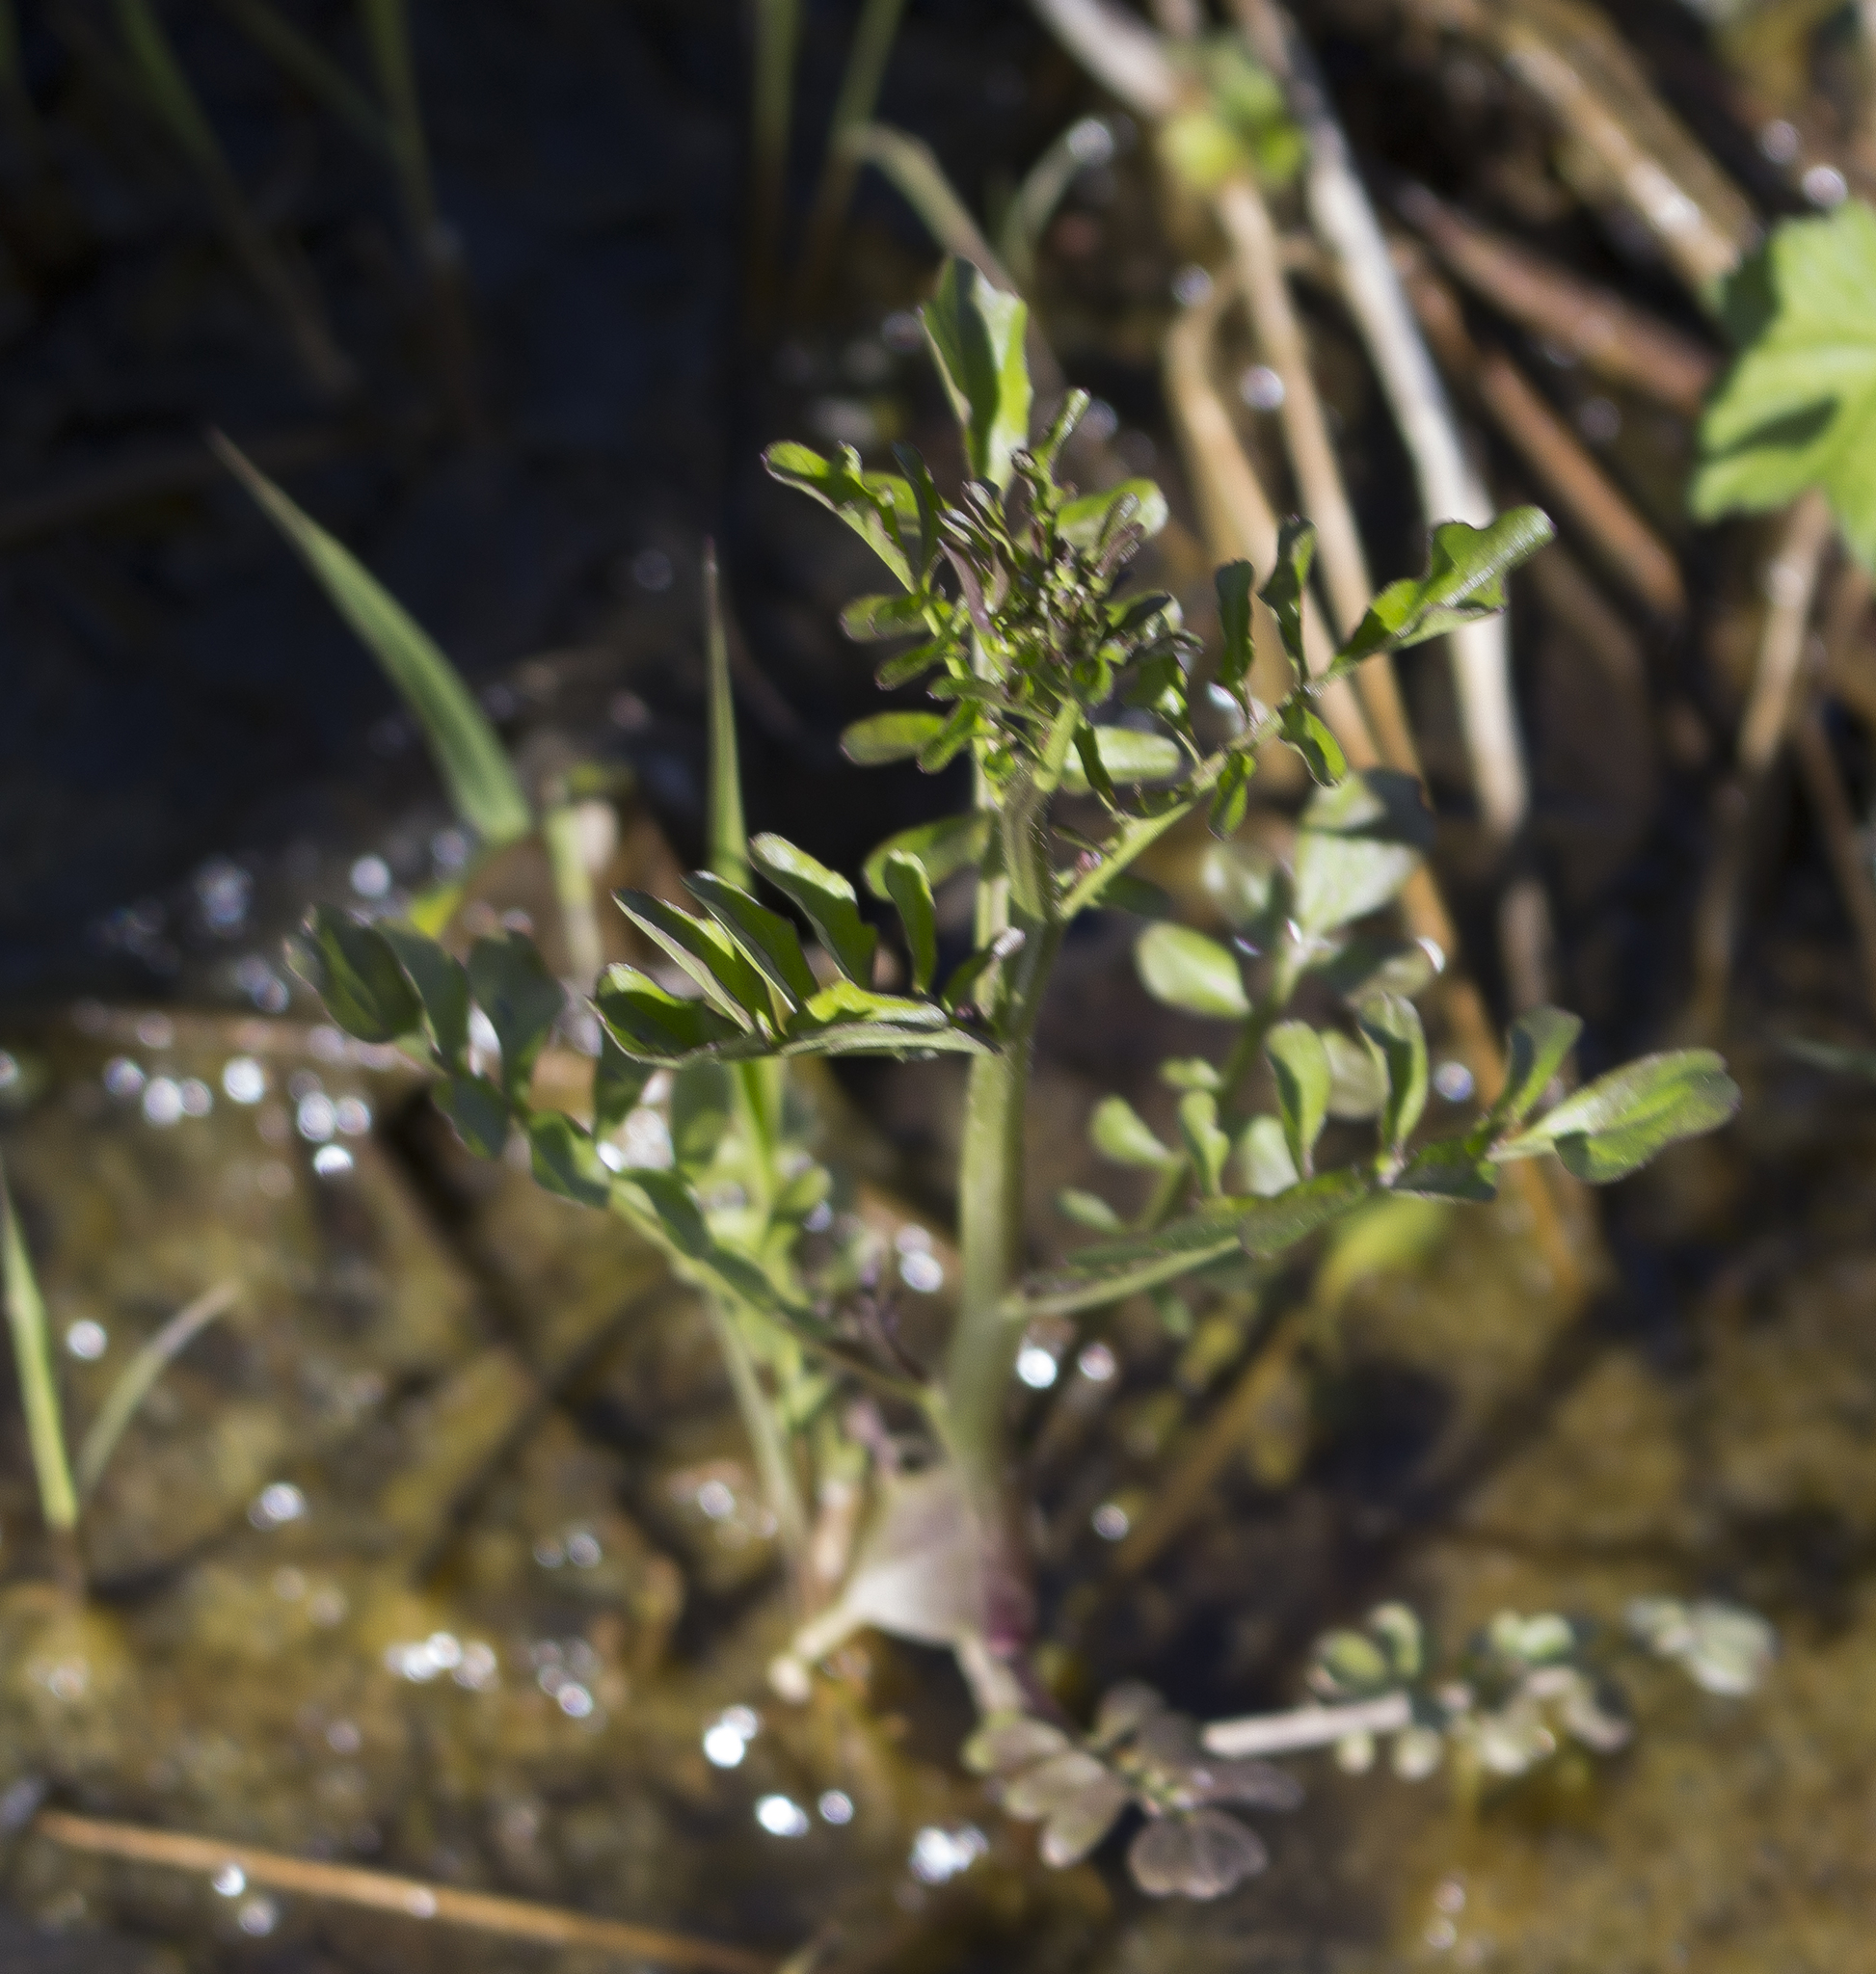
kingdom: Plantae
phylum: Tracheophyta
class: Magnoliopsida
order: Brassicales
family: Brassicaceae
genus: Cardamine
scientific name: Cardamine pensylvanica
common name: Pennsylvania bittercress
